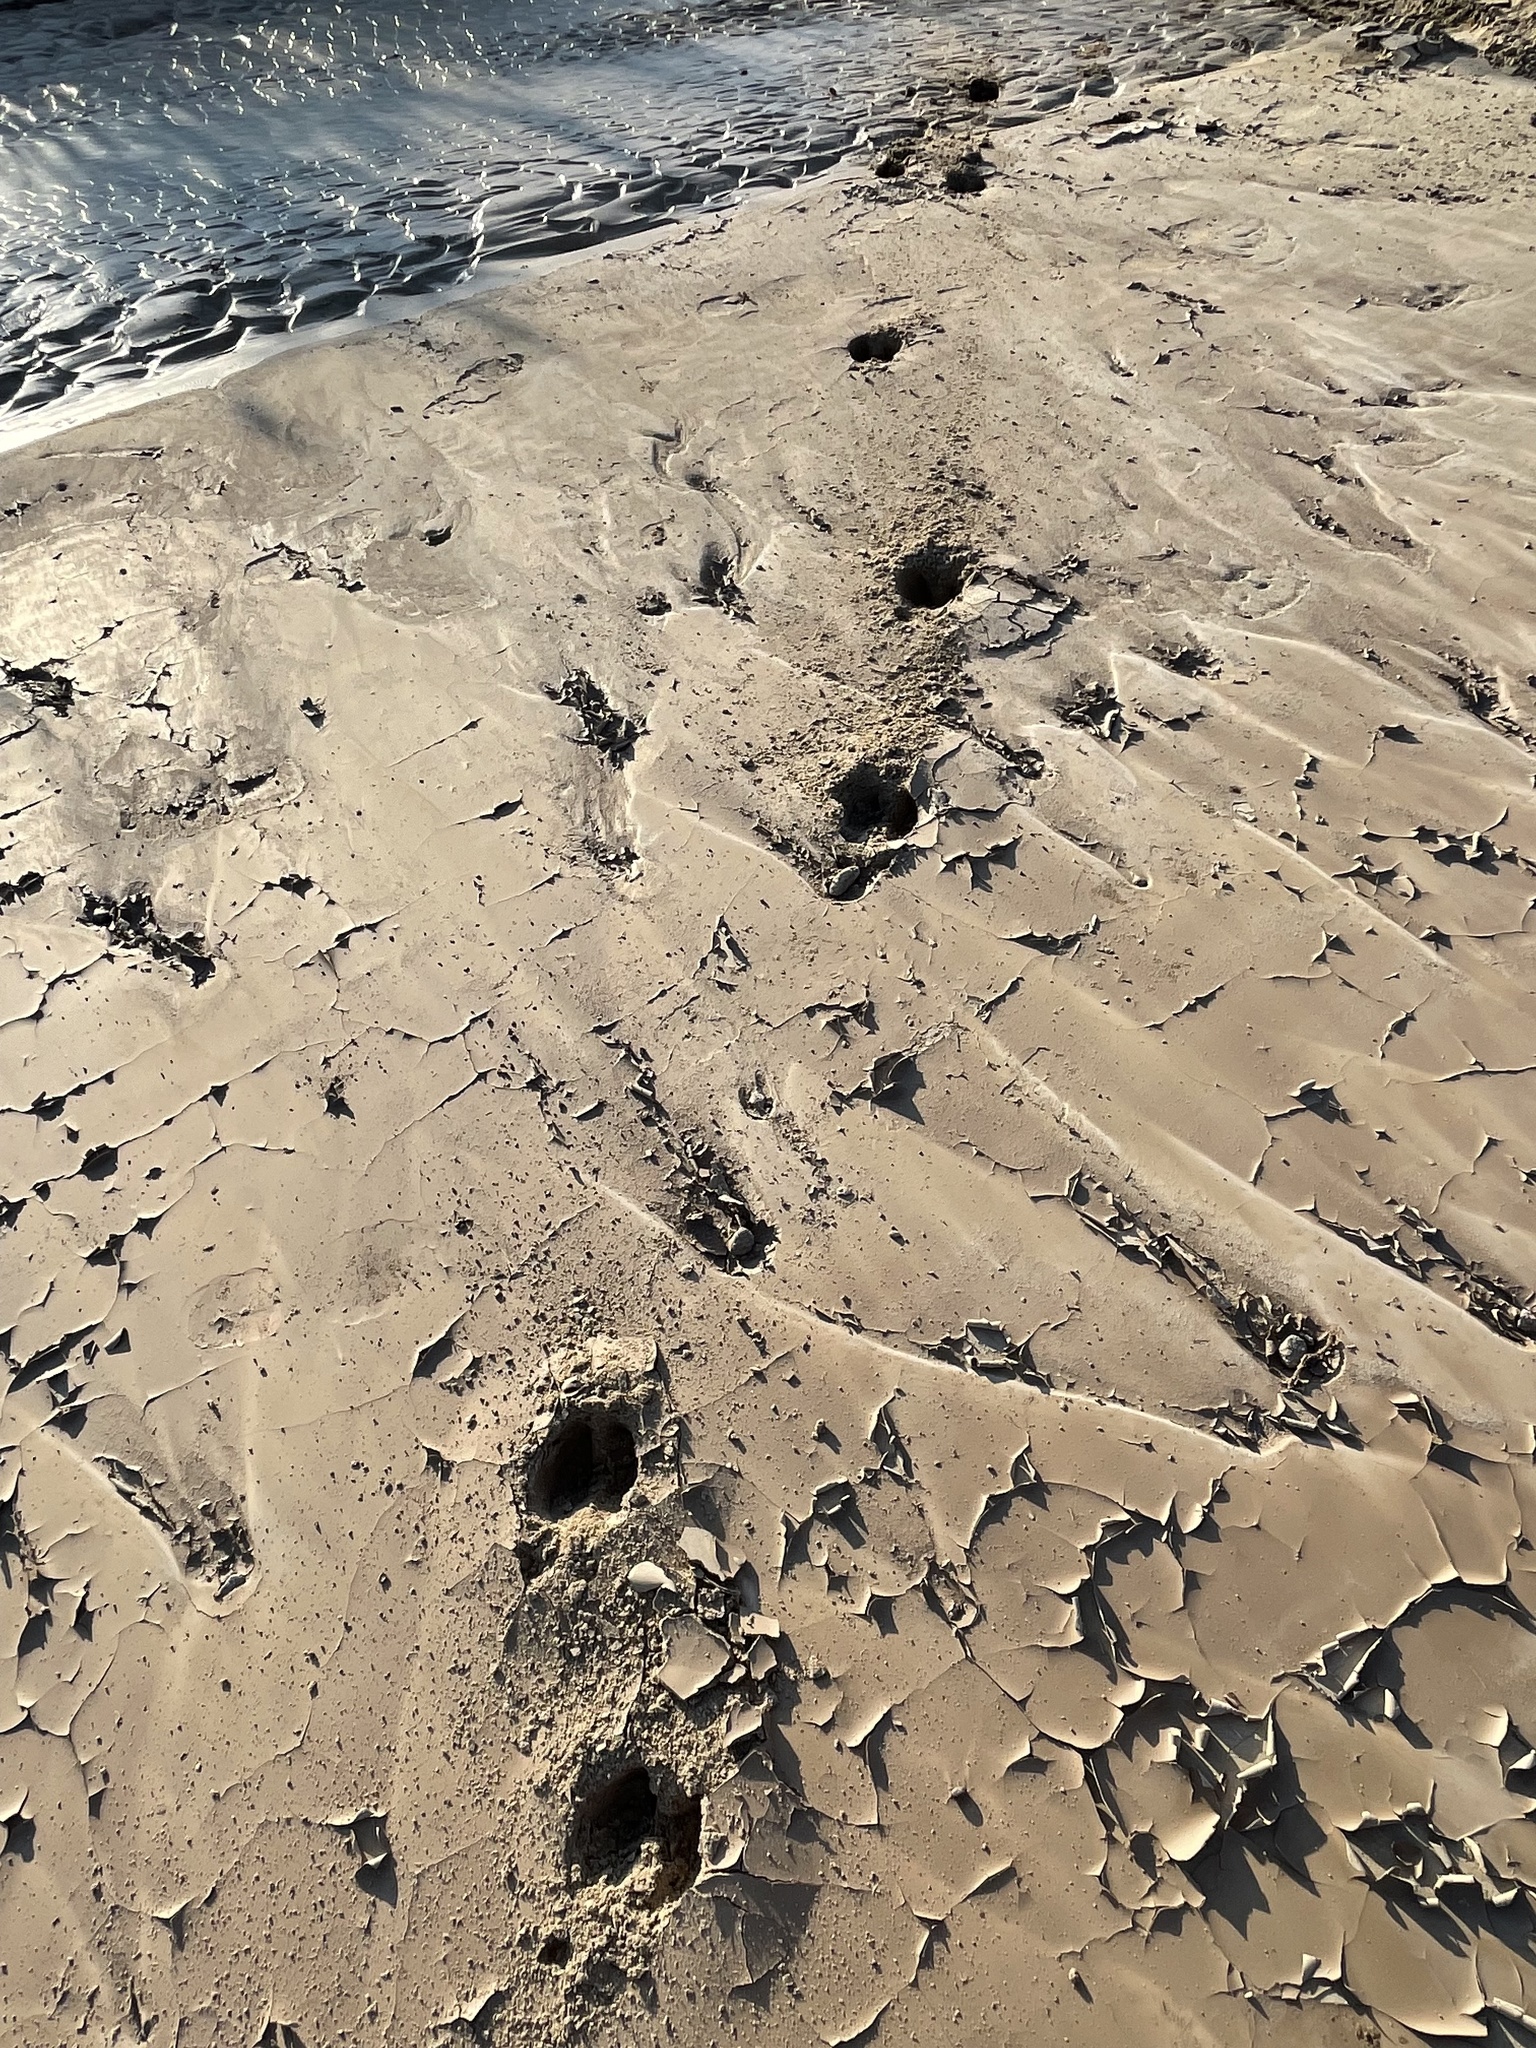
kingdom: Animalia
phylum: Chordata
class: Mammalia
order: Artiodactyla
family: Cervidae
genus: Cervus
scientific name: Cervus elaphus
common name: Red deer
